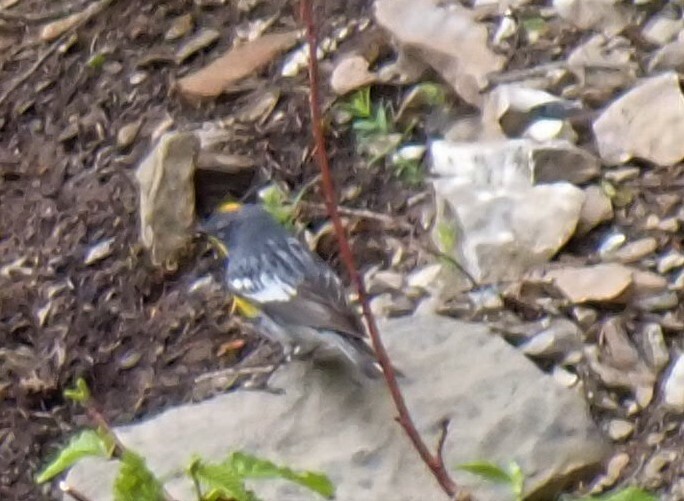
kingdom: Animalia
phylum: Chordata
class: Aves
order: Passeriformes
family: Parulidae
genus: Setophaga
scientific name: Setophaga auduboni
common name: Audubon's warbler
